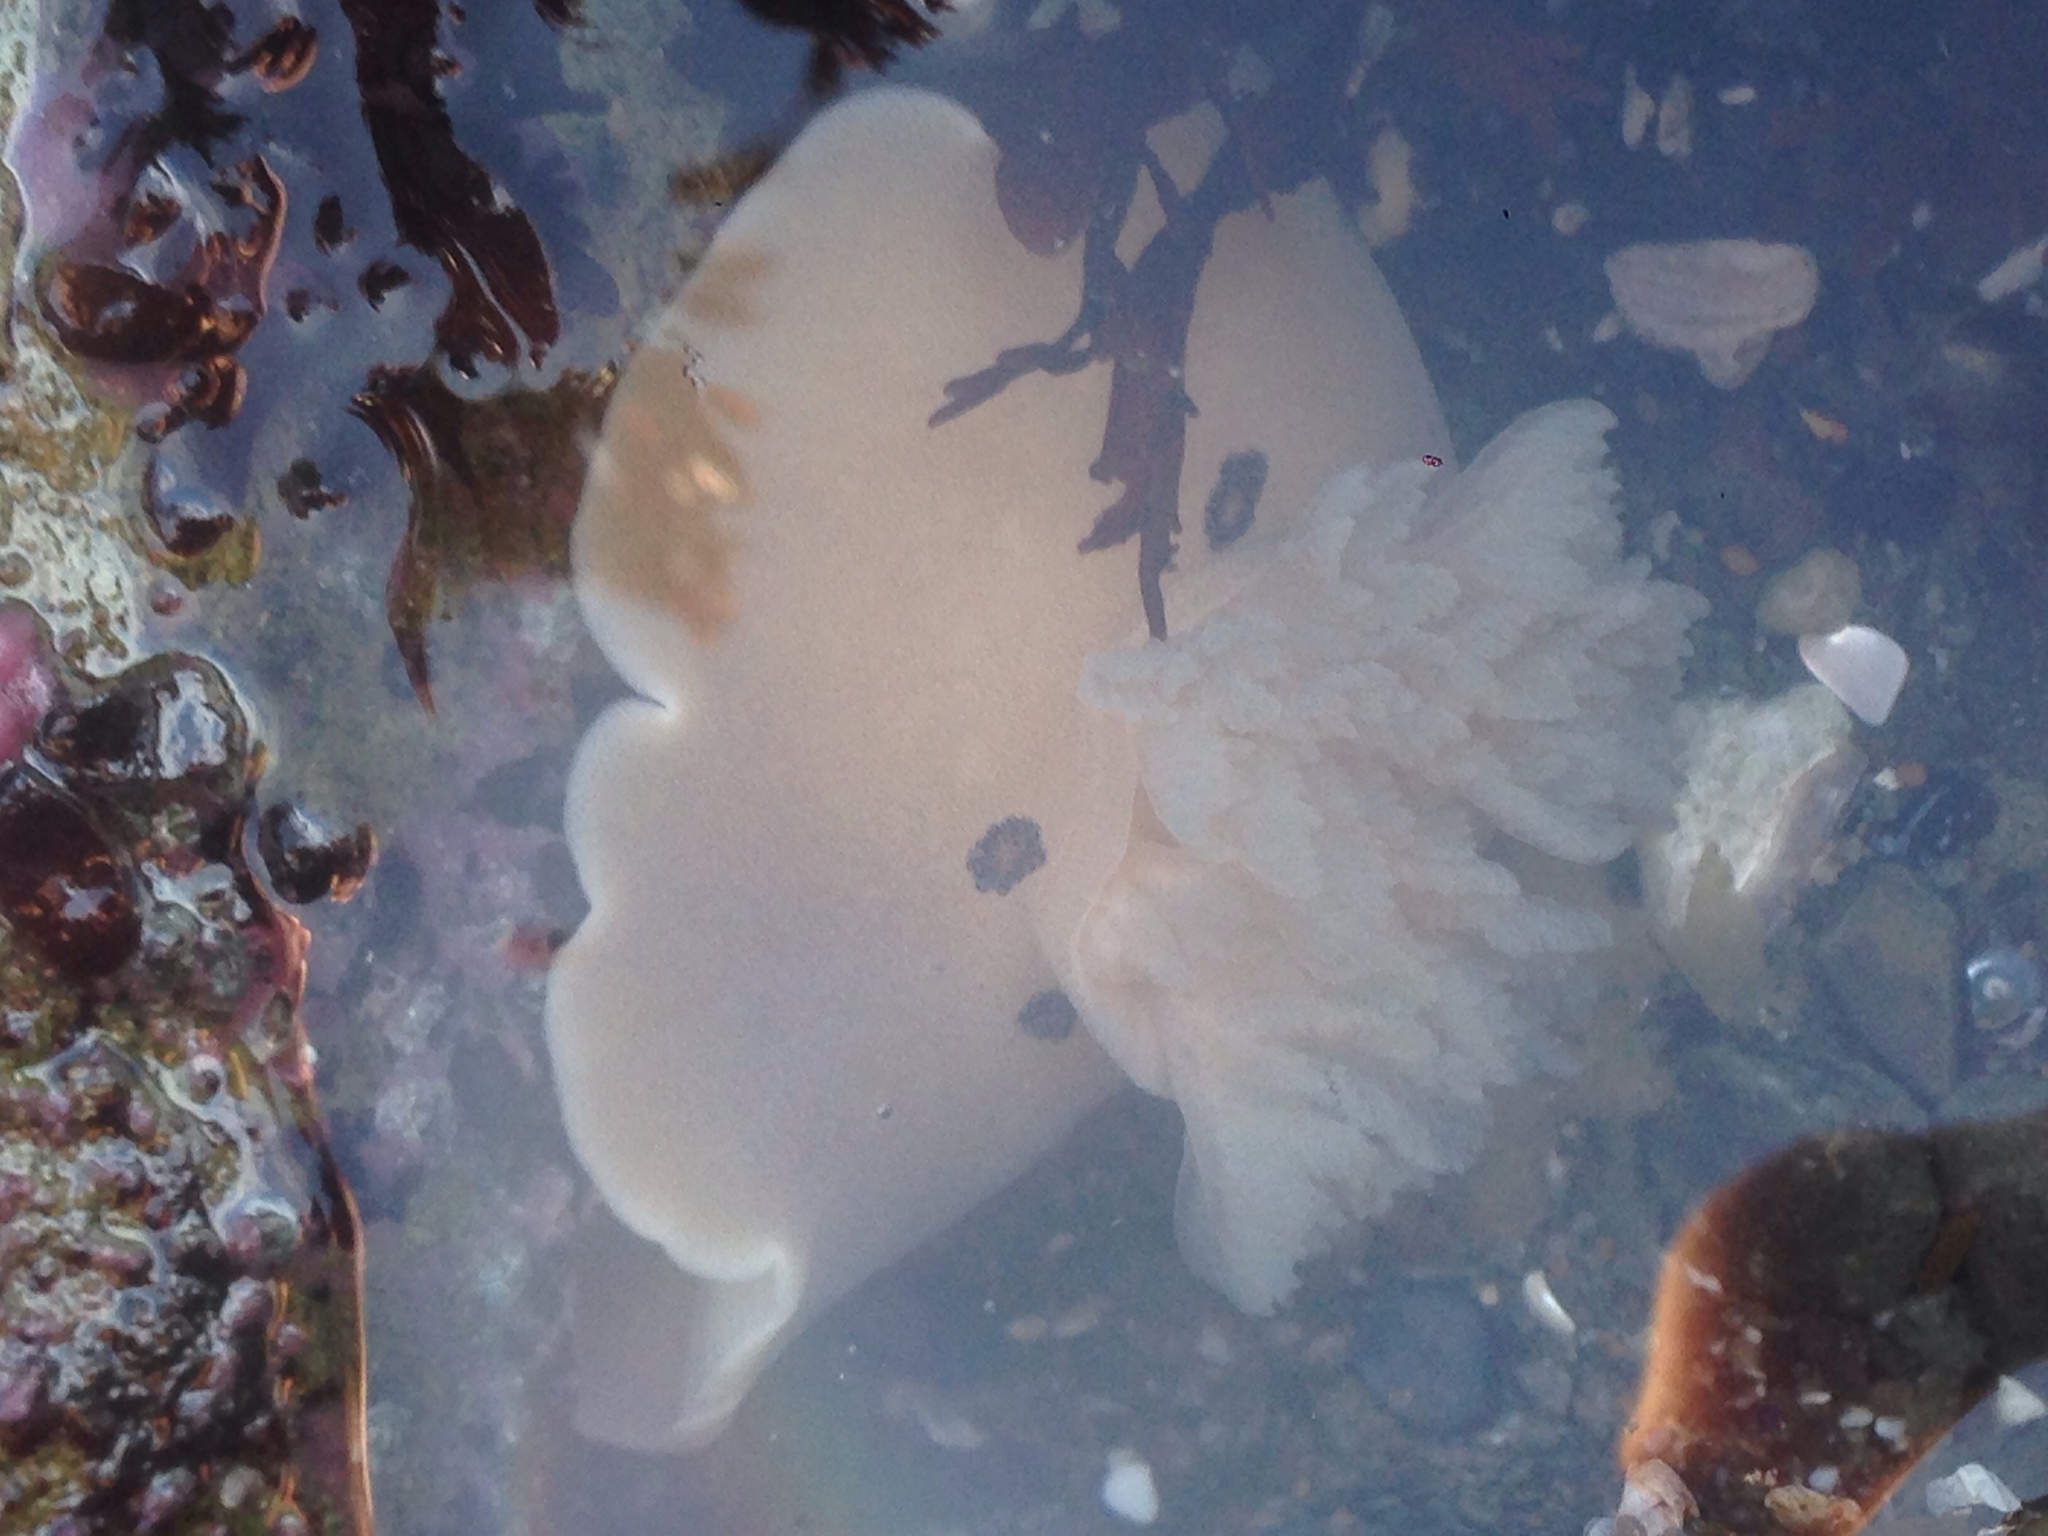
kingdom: Animalia
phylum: Mollusca
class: Gastropoda
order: Nudibranchia
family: Discodorididae
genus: Diaulula
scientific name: Diaulula sandiegensis
